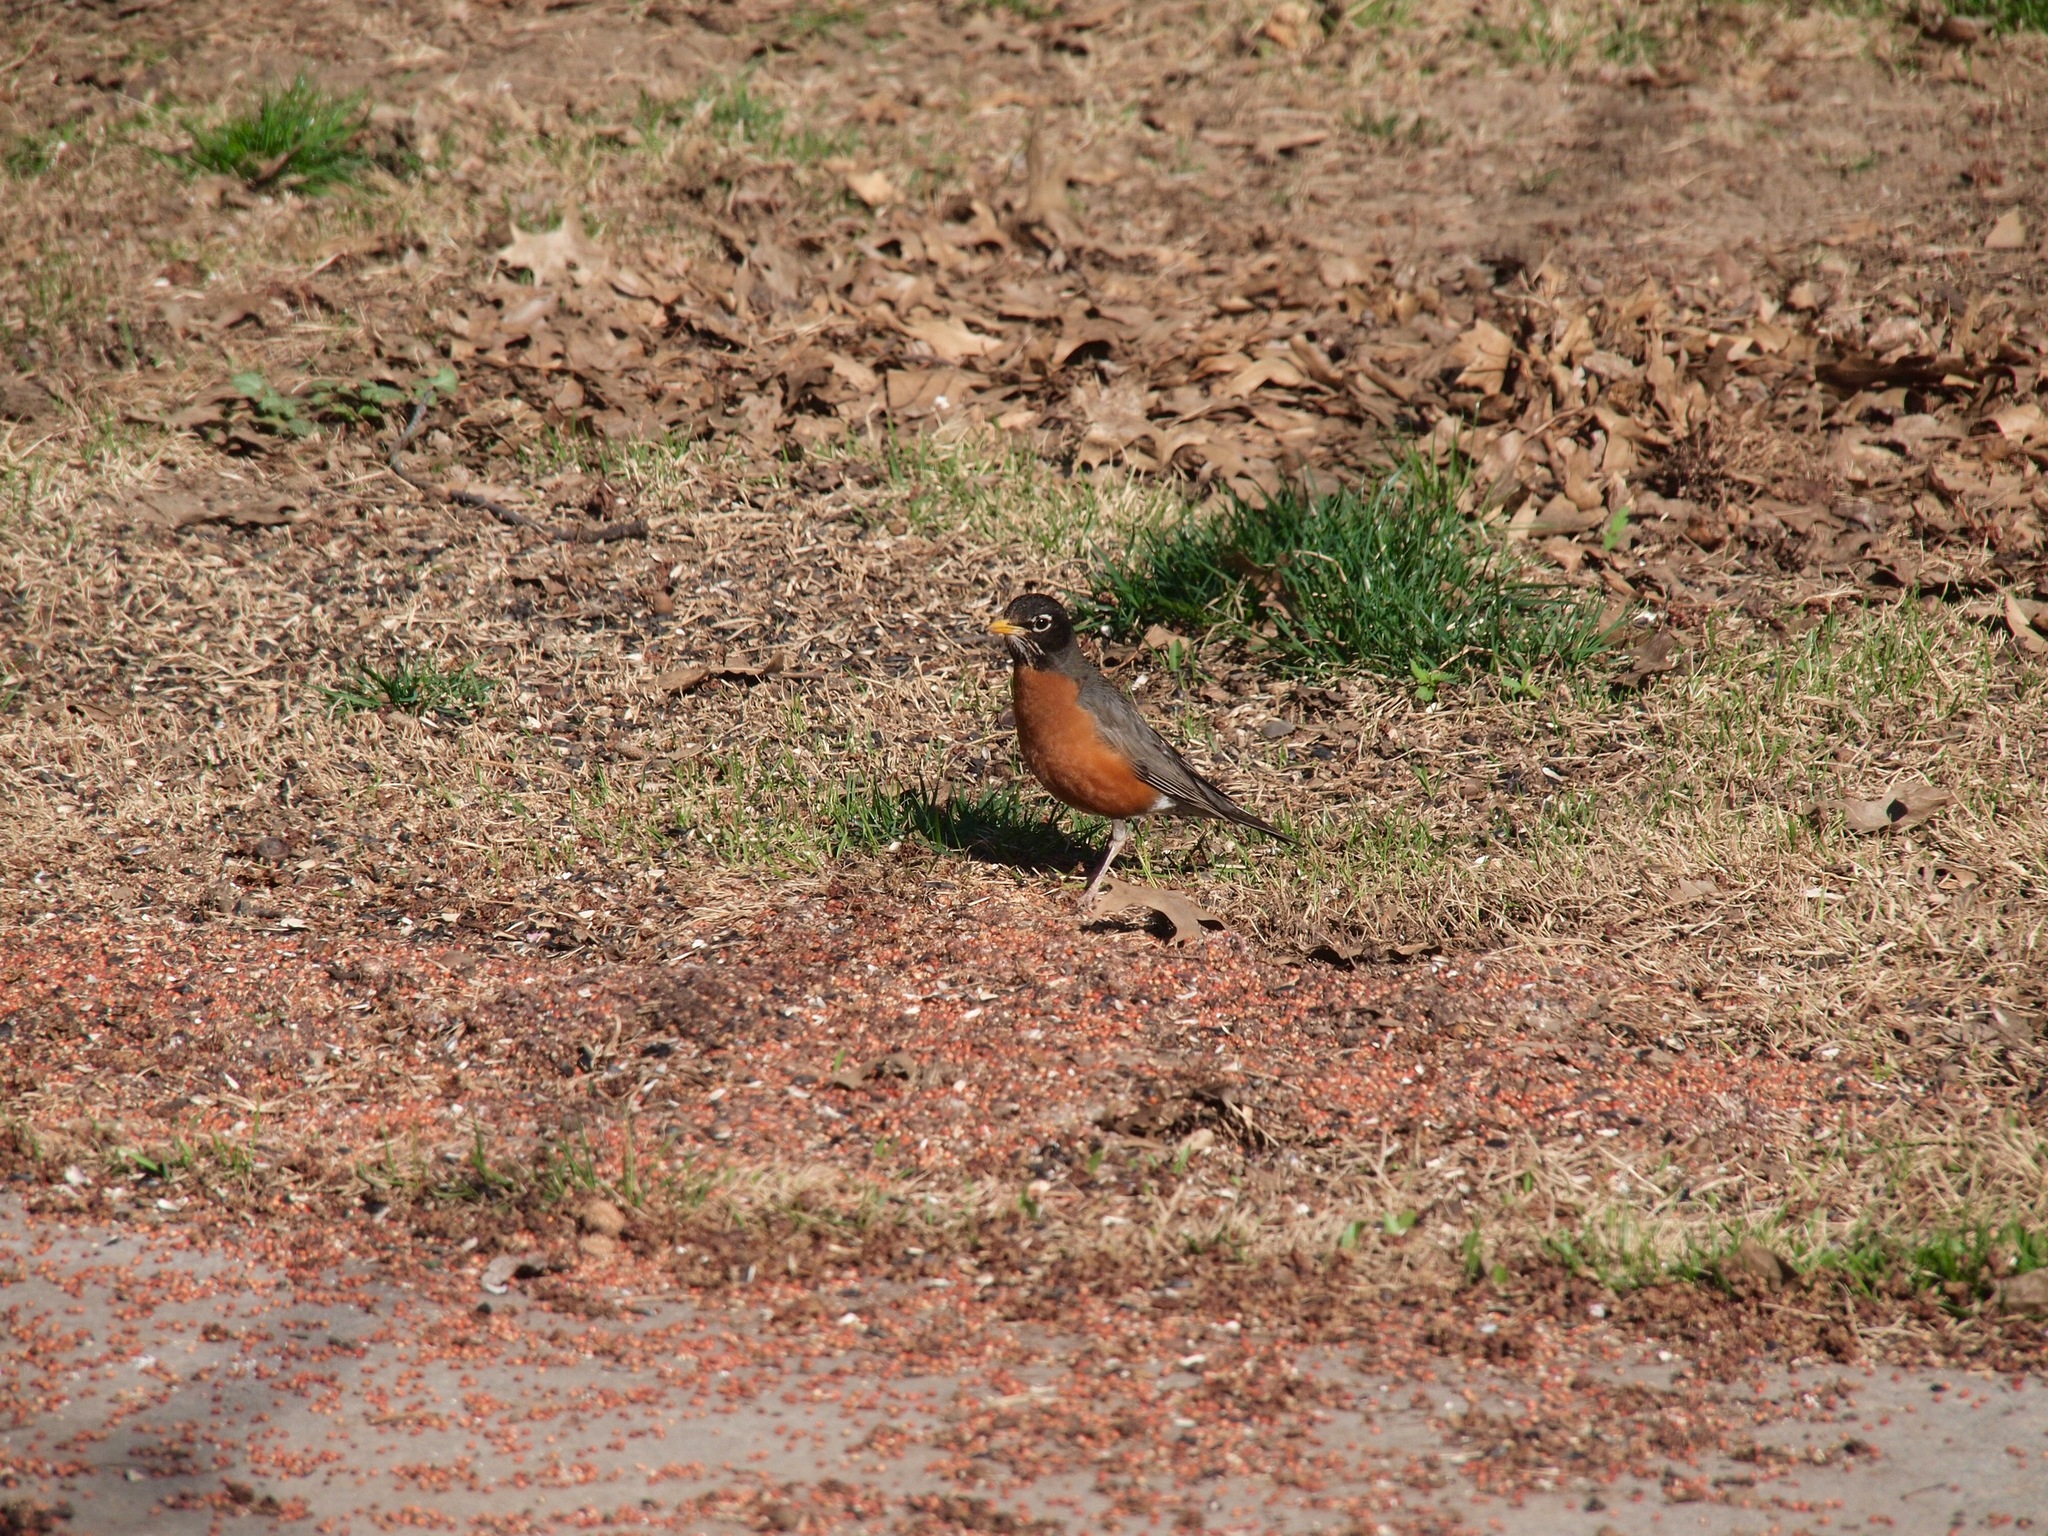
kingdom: Animalia
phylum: Chordata
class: Aves
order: Passeriformes
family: Turdidae
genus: Turdus
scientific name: Turdus migratorius
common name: American robin
